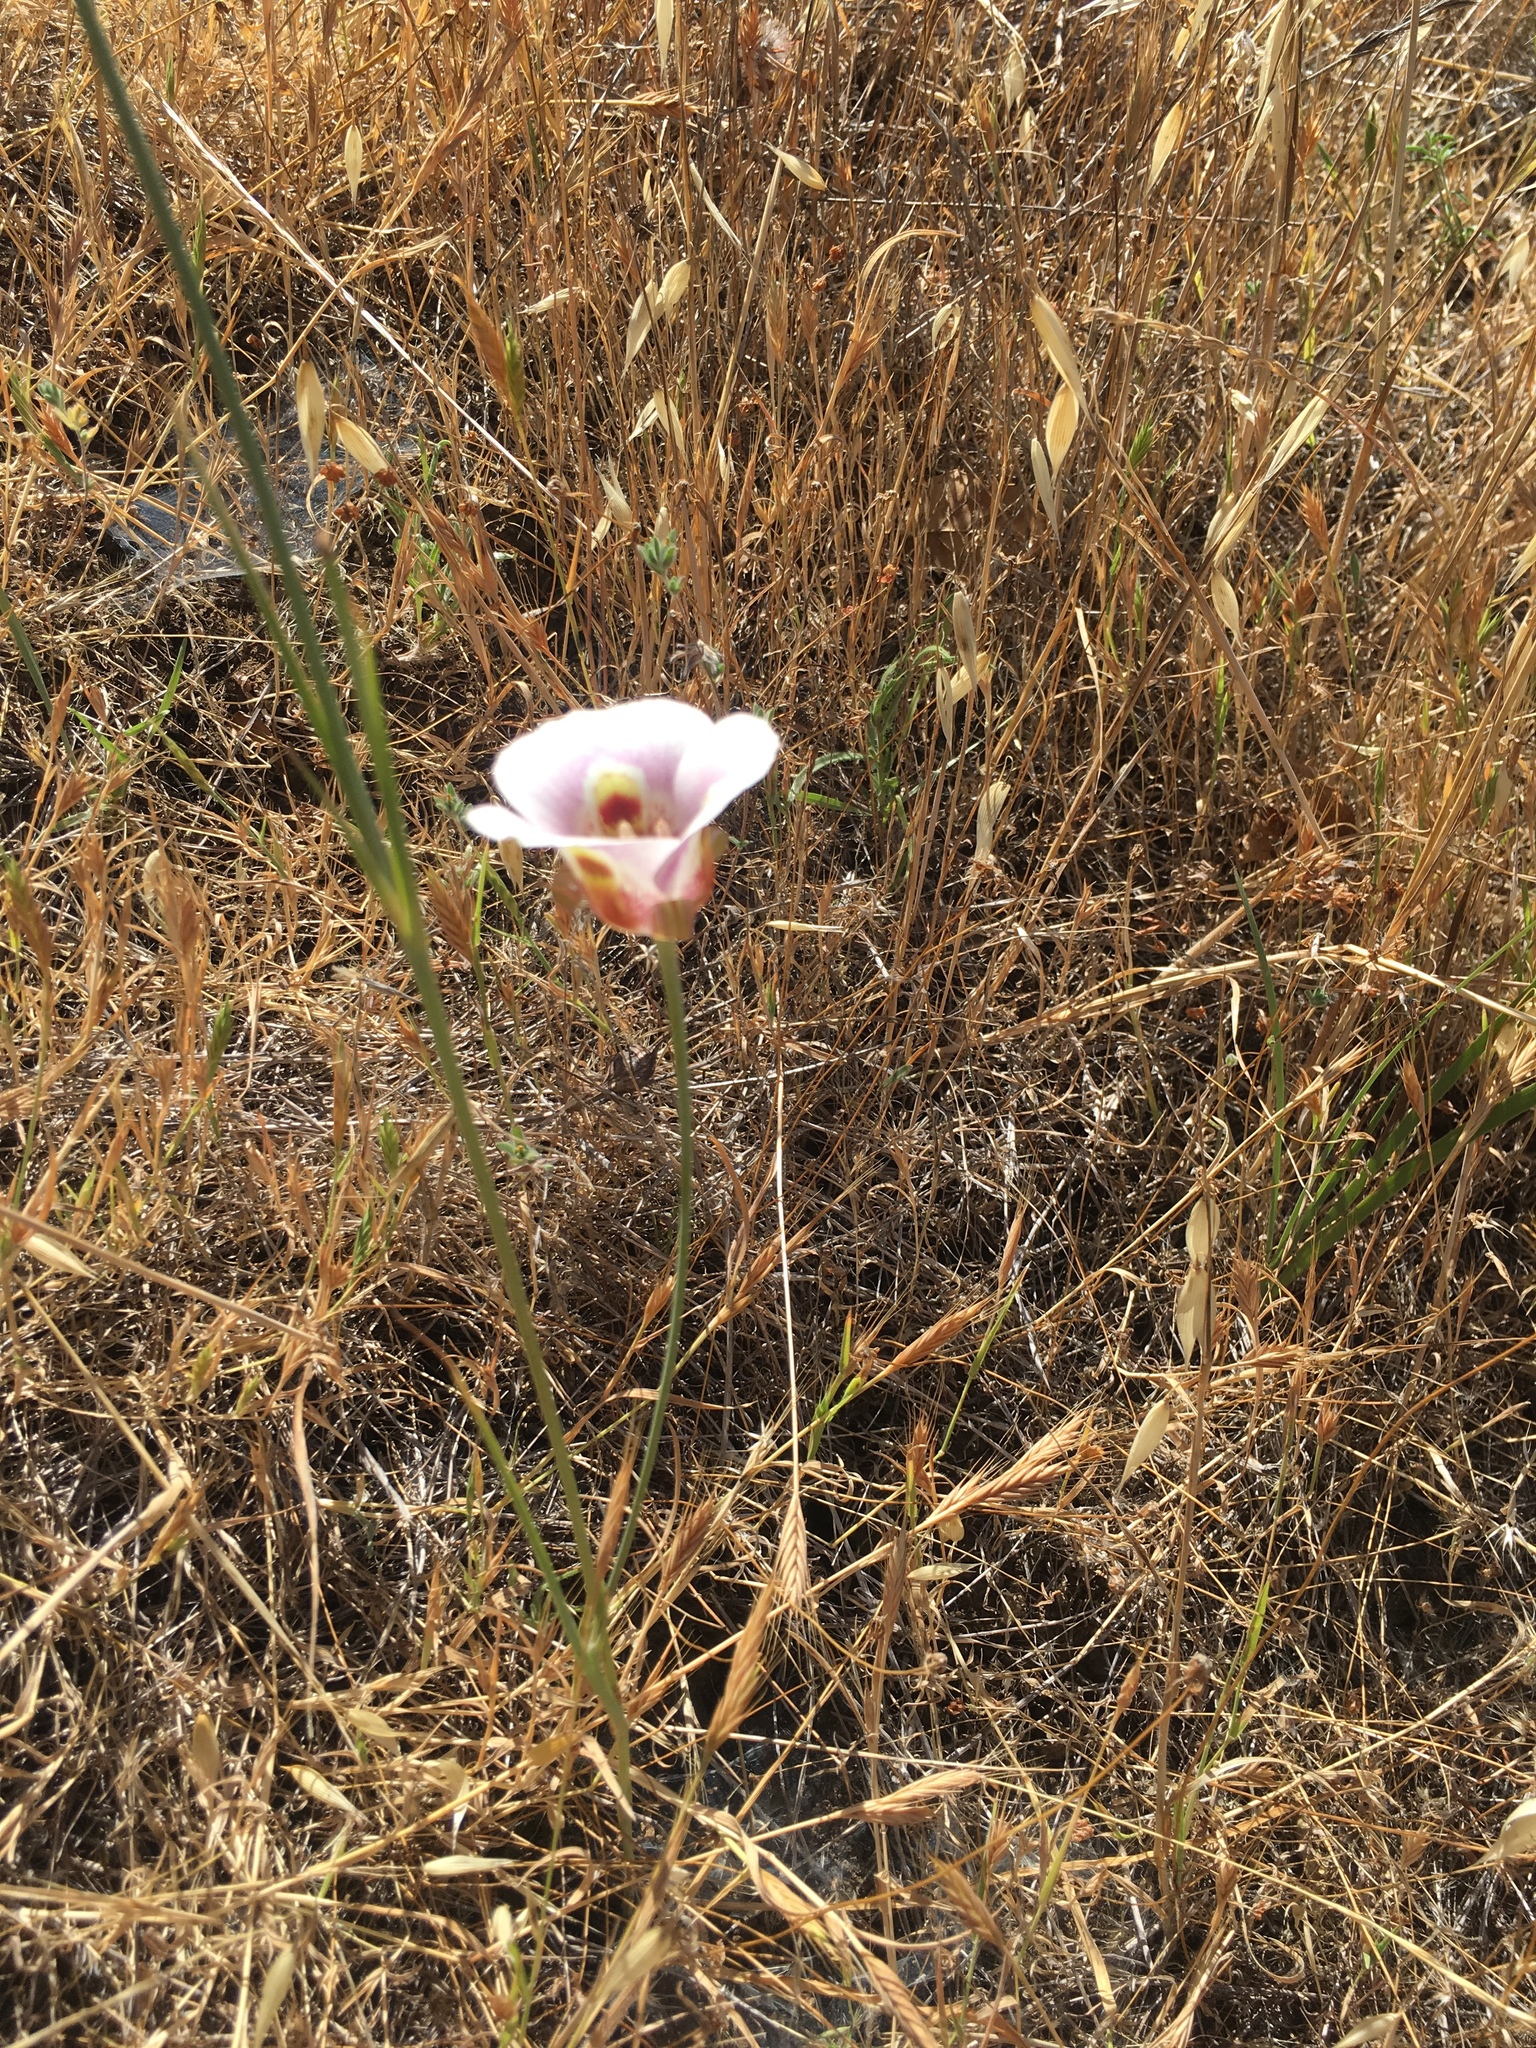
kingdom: Plantae
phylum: Tracheophyta
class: Liliopsida
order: Liliales
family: Liliaceae
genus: Calochortus
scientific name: Calochortus argillosus
